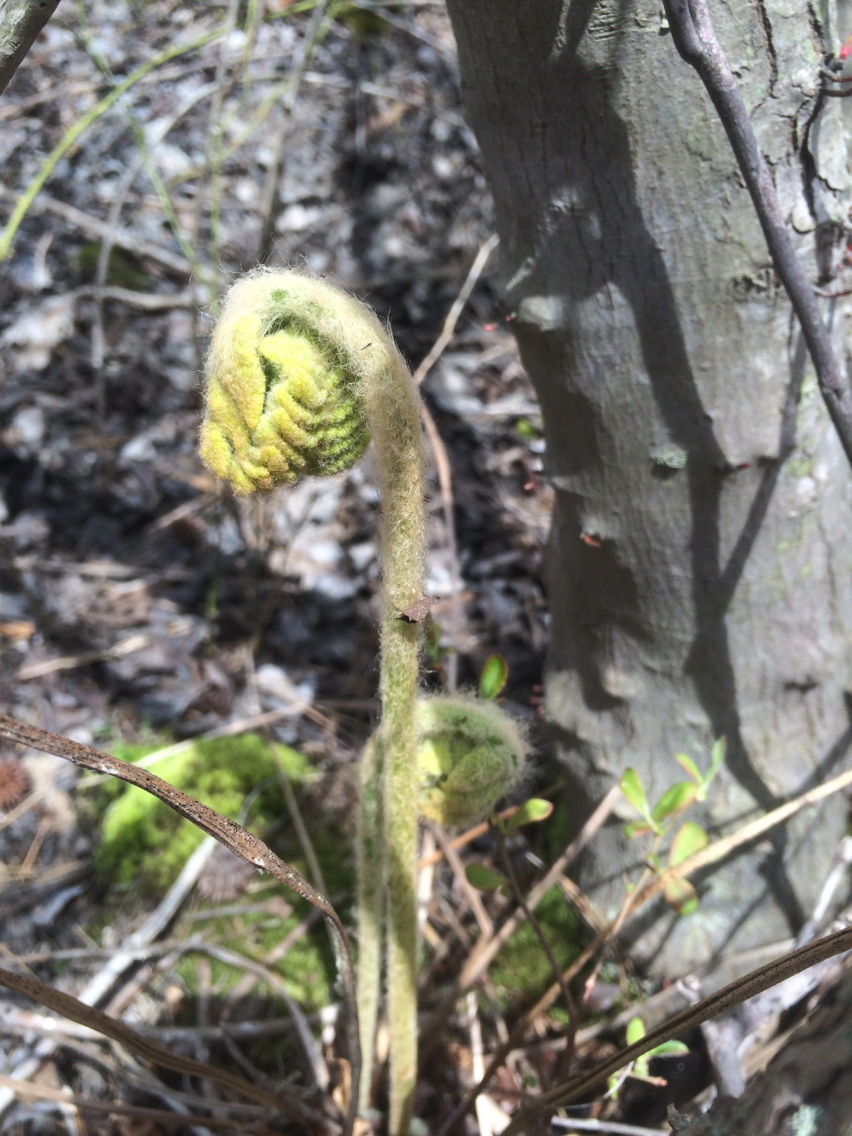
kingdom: Plantae
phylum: Tracheophyta
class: Polypodiopsida
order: Osmundales
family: Osmundaceae
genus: Osmundastrum
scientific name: Osmundastrum cinnamomeum
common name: Cinnamon fern
